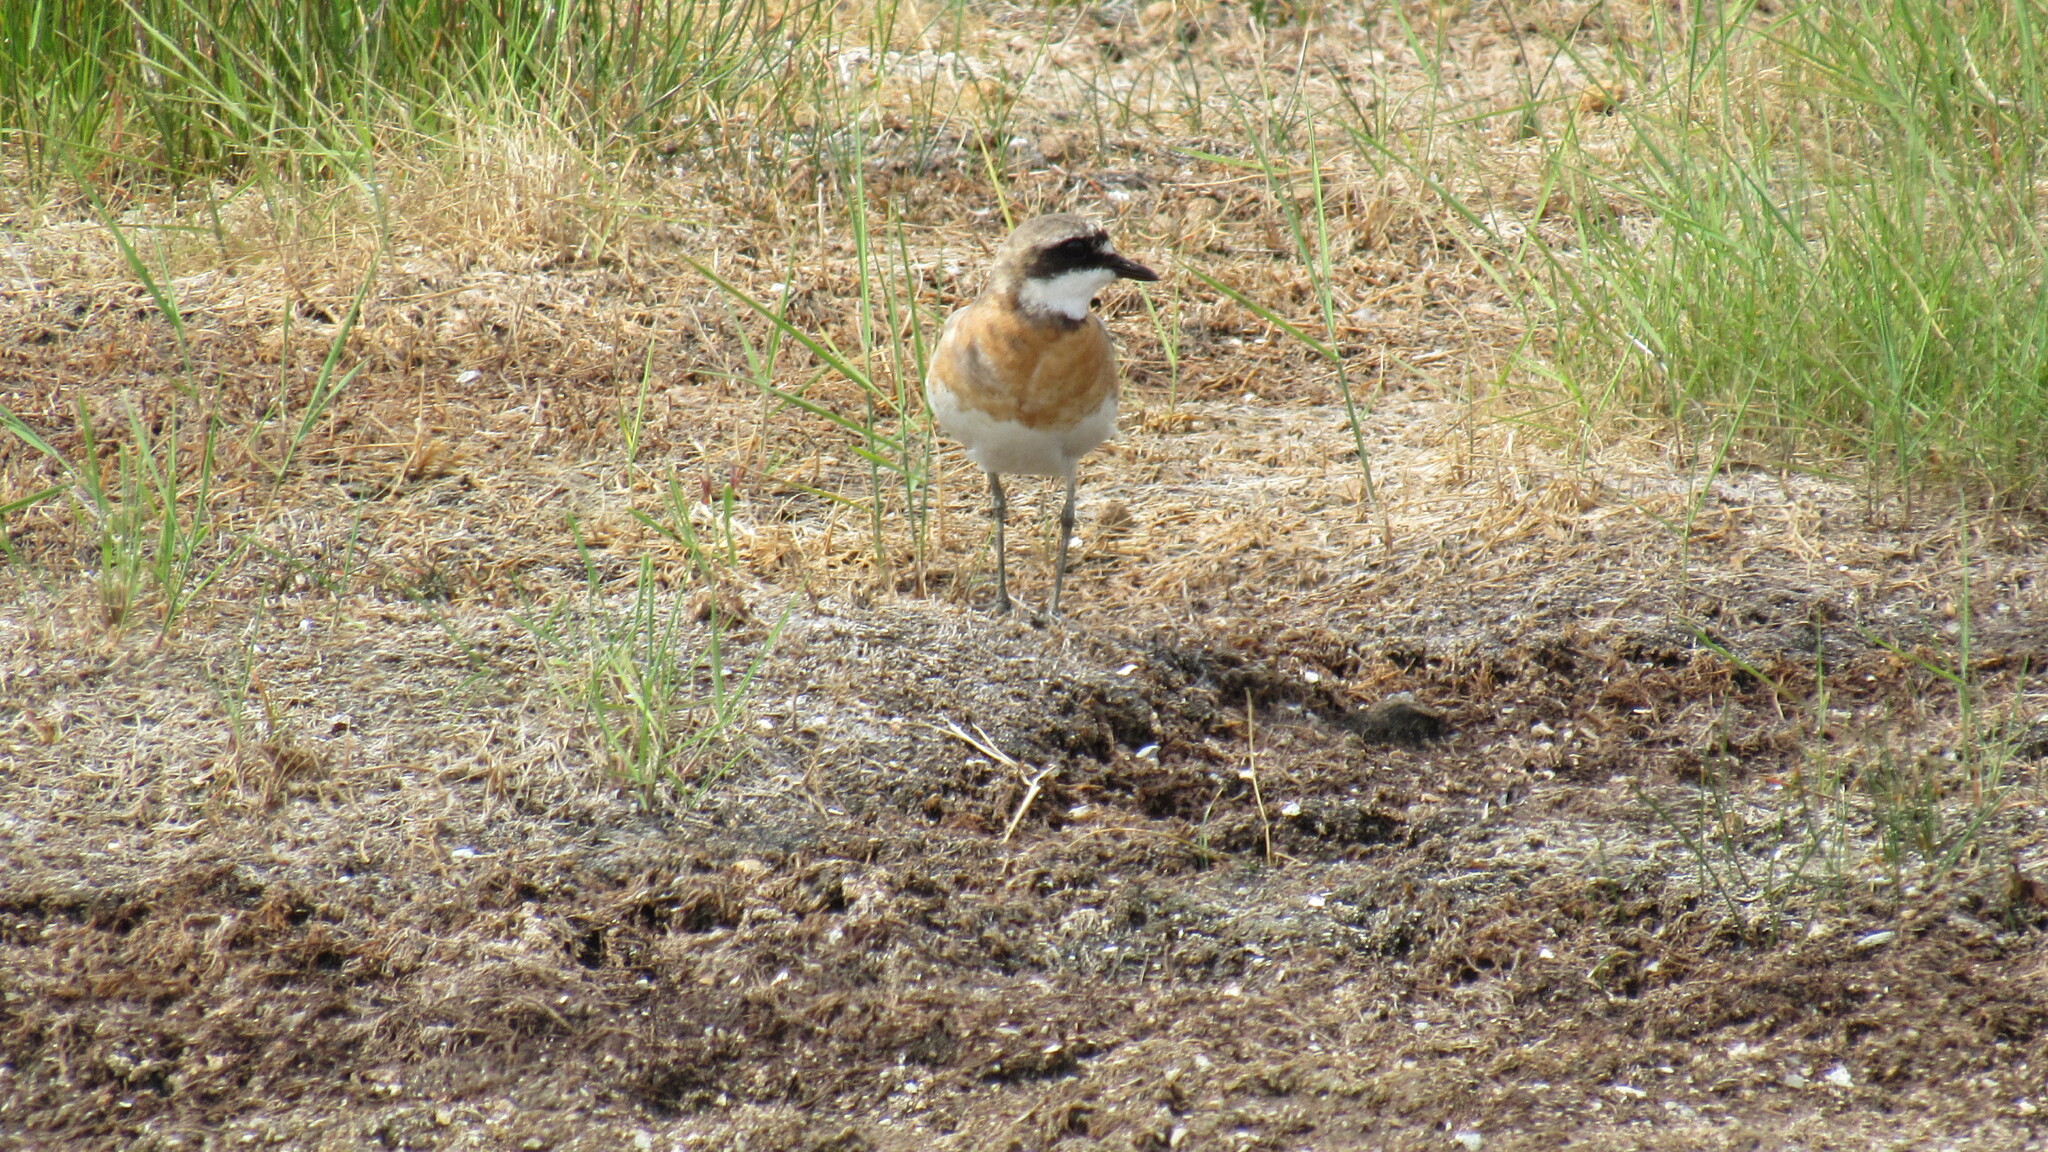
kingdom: Animalia
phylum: Chordata
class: Aves
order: Charadriiformes
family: Charadriidae
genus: Anarhynchus
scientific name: Anarhynchus
